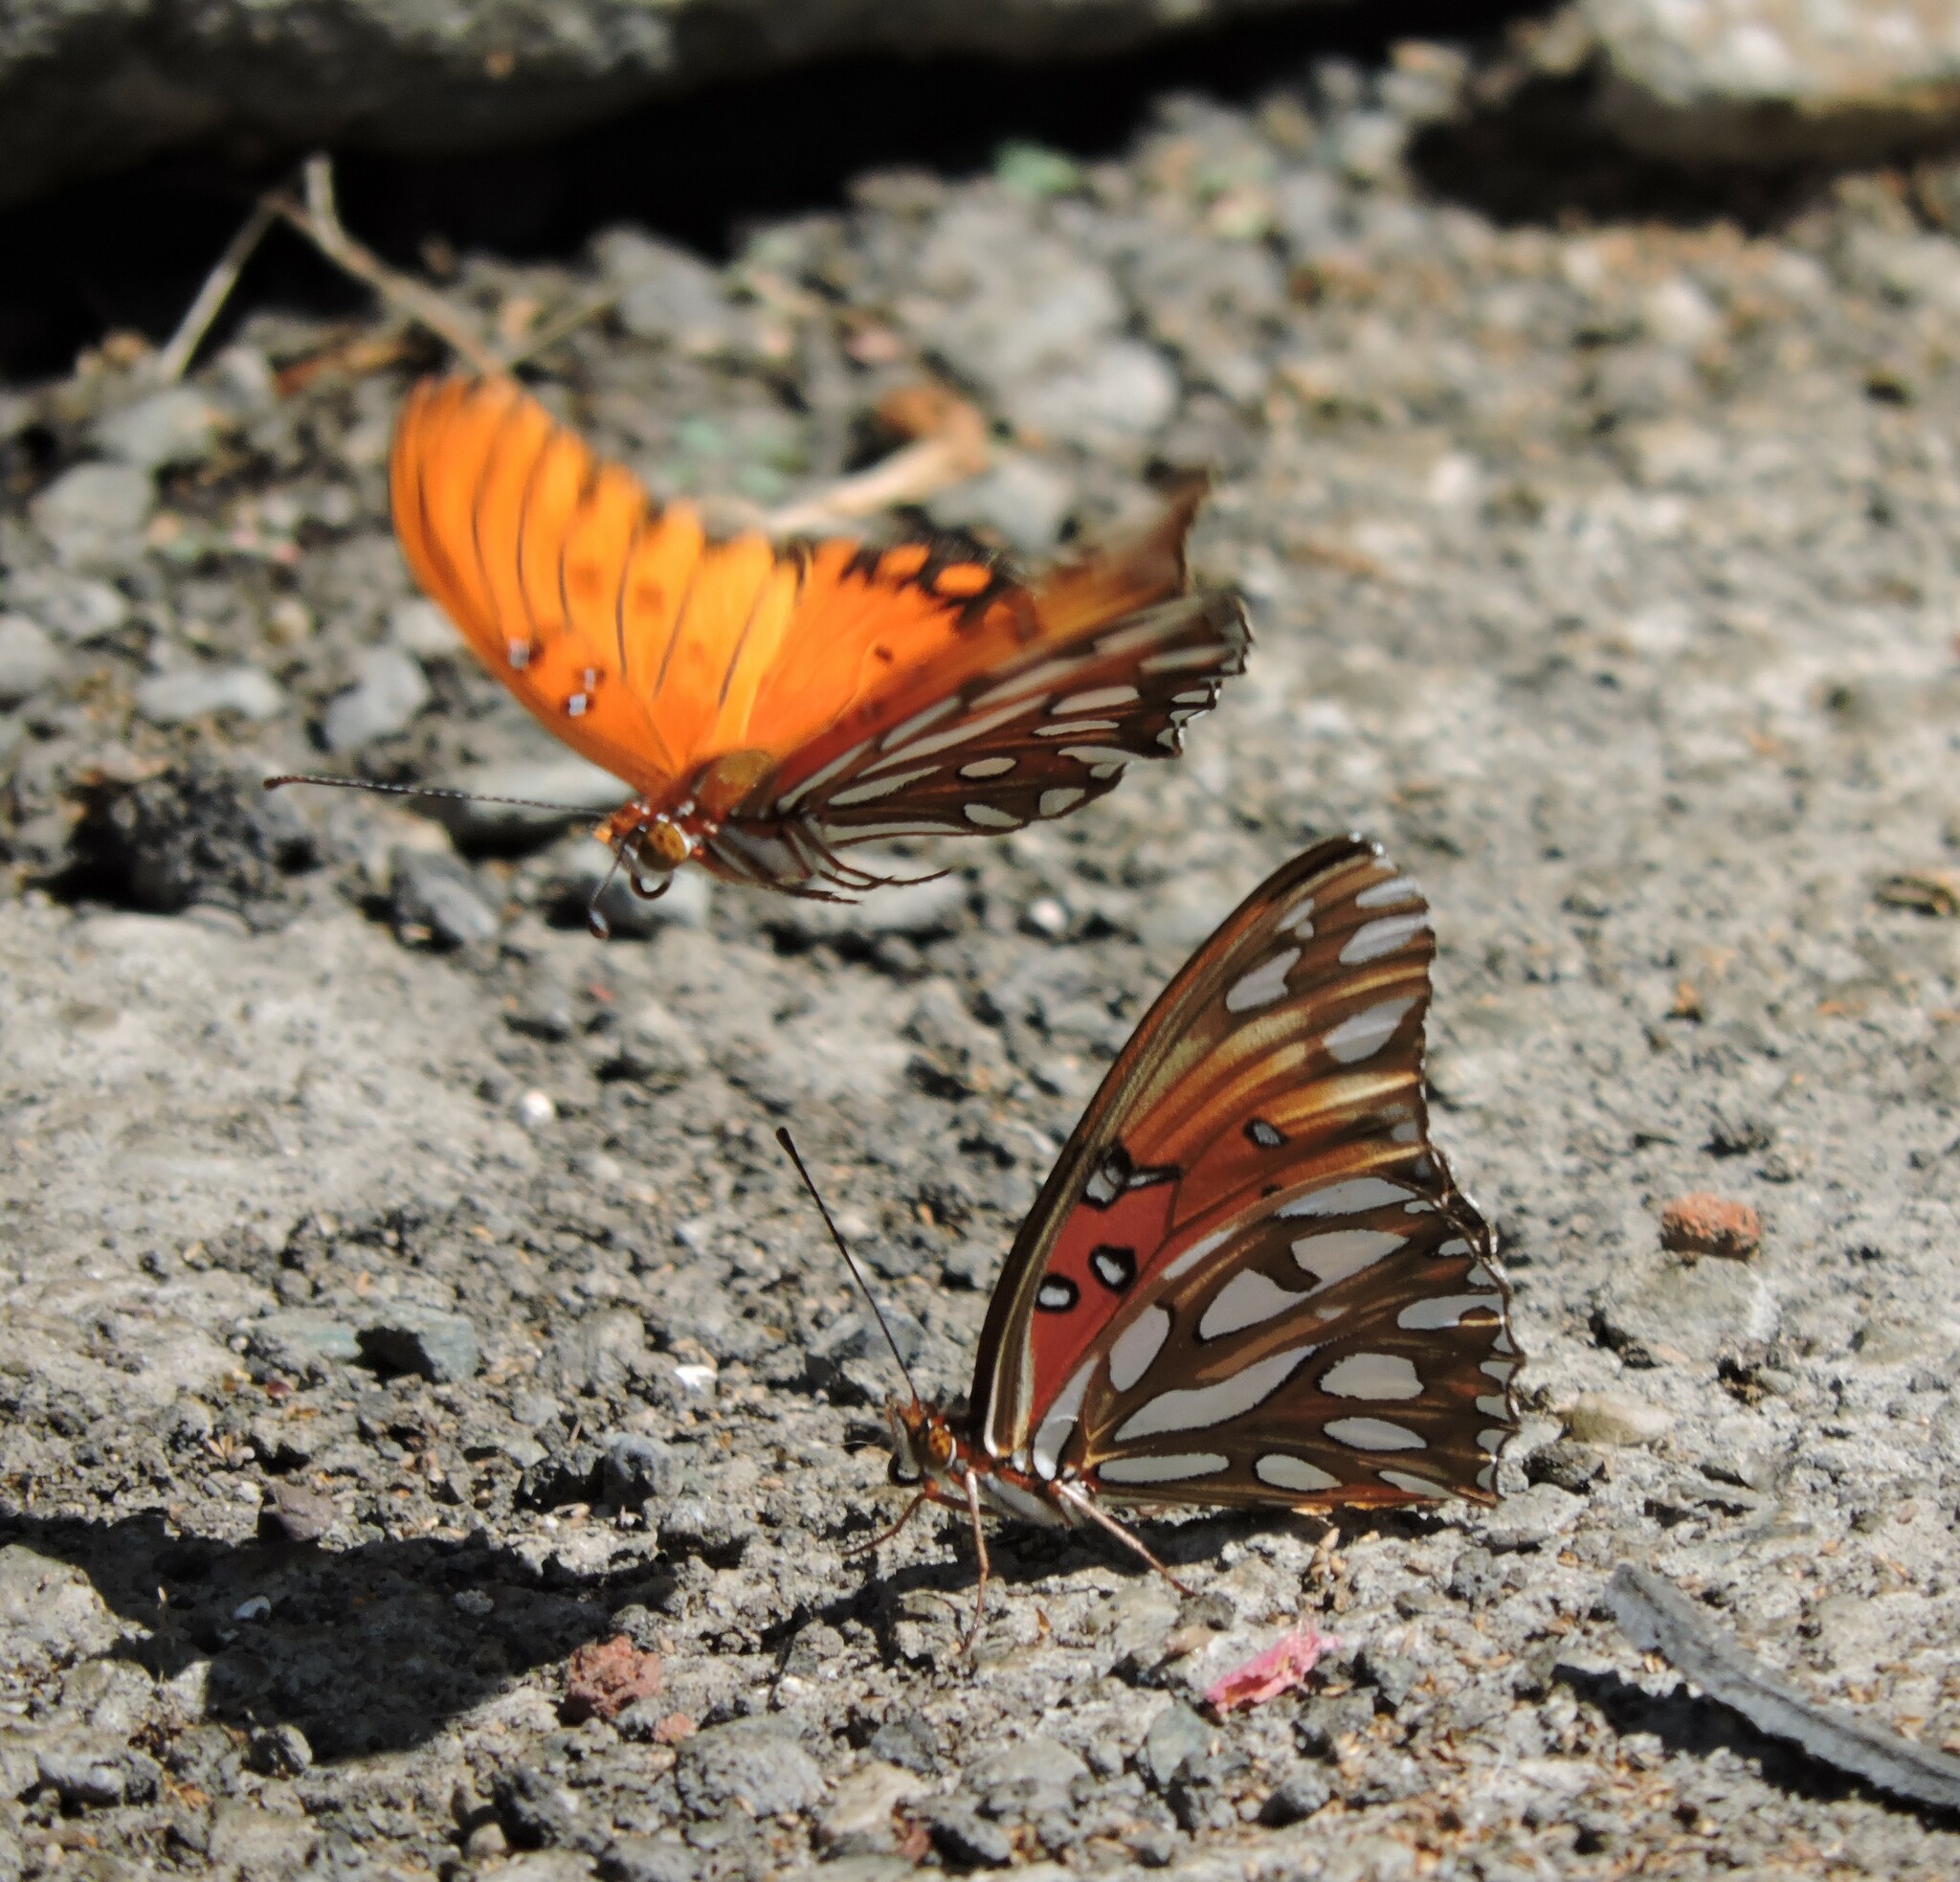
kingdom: Animalia
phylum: Arthropoda
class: Insecta
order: Lepidoptera
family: Nymphalidae
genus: Dione
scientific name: Dione vanillae
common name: Gulf fritillary
